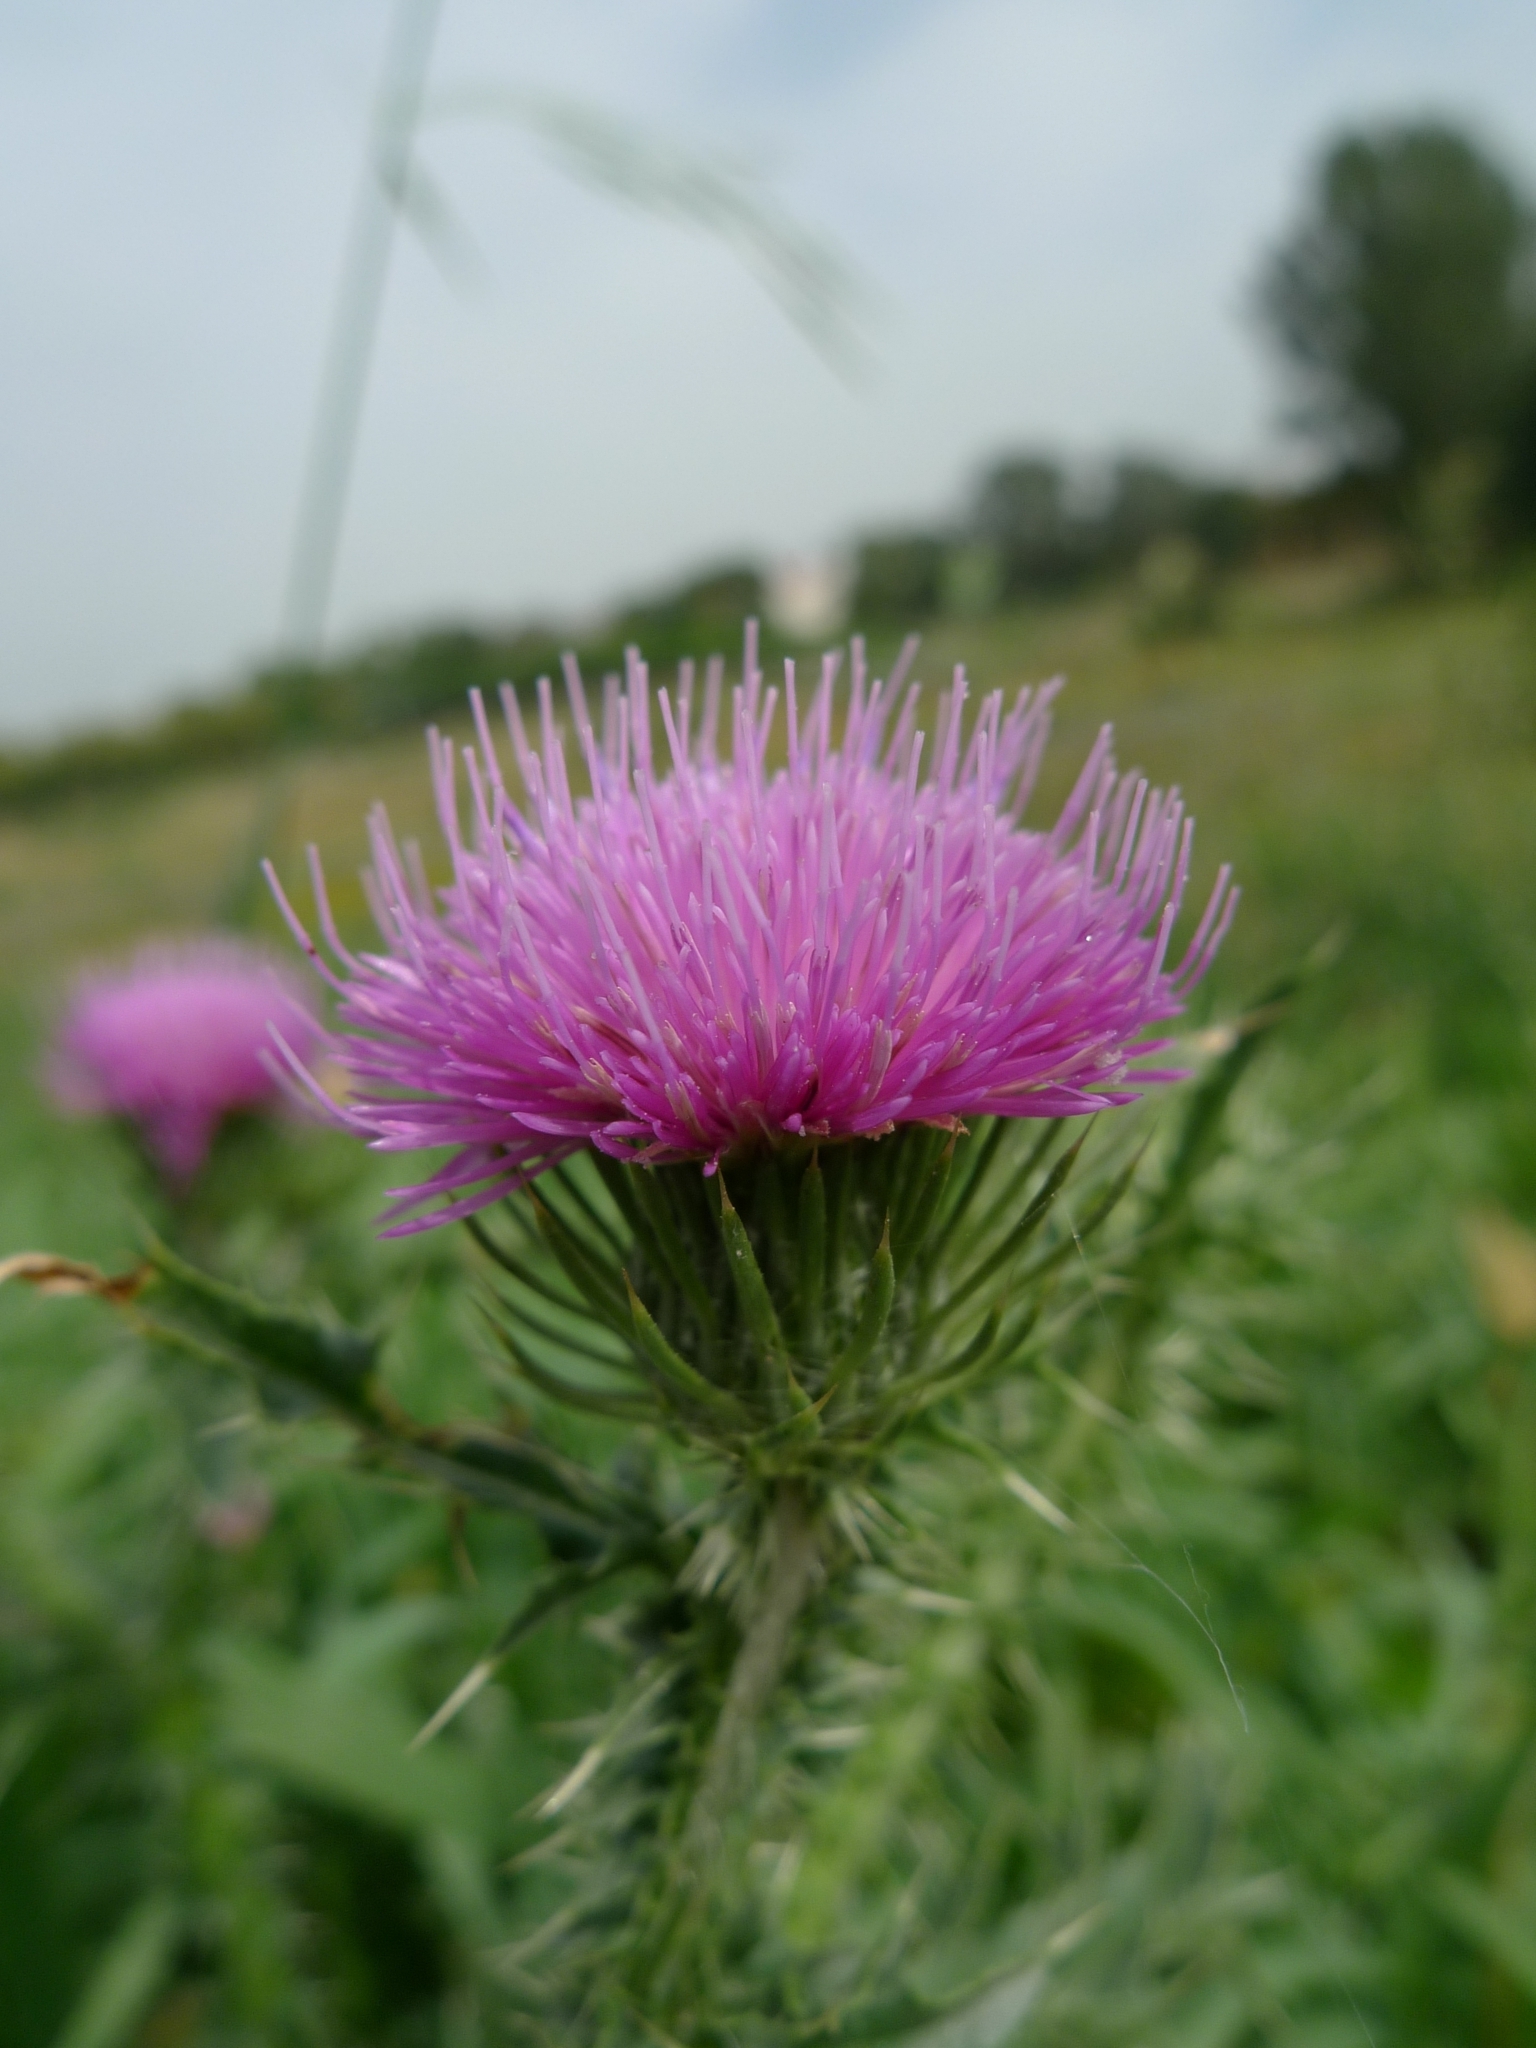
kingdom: Plantae
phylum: Tracheophyta
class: Magnoliopsida
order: Asterales
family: Asteraceae
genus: Carduus
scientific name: Carduus acanthoides
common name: Plumeless thistle
